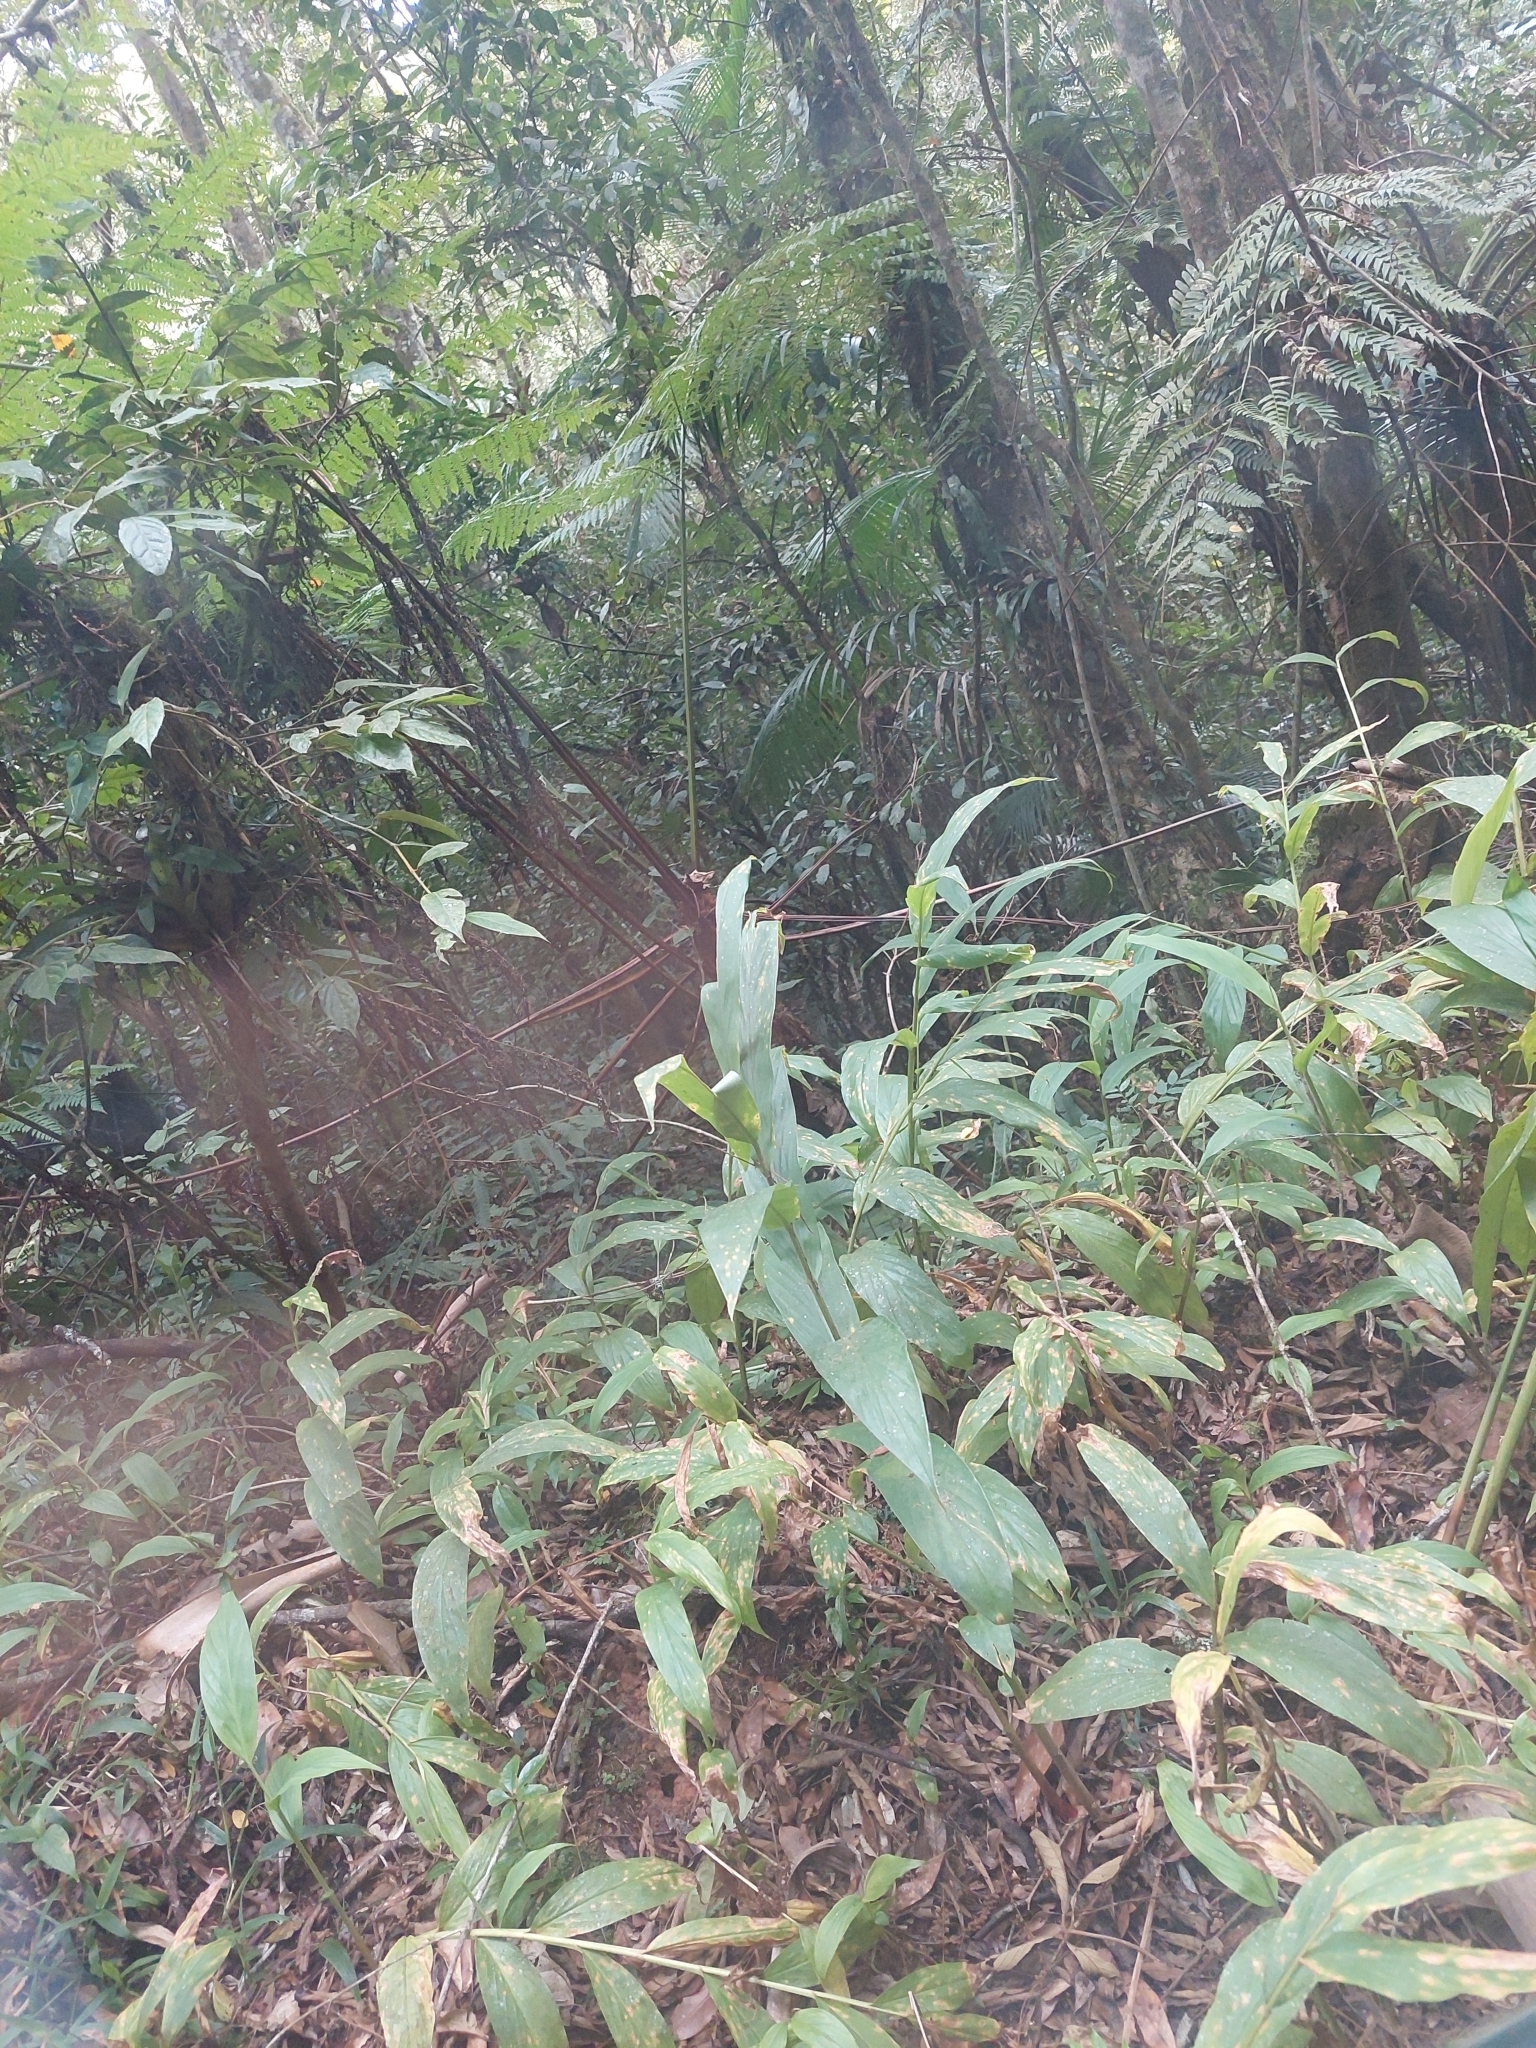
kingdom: Plantae
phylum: Tracheophyta
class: Liliopsida
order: Zingiberales
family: Zingiberaceae
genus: Hedychium
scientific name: Hedychium coronarium
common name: White garland-lily
